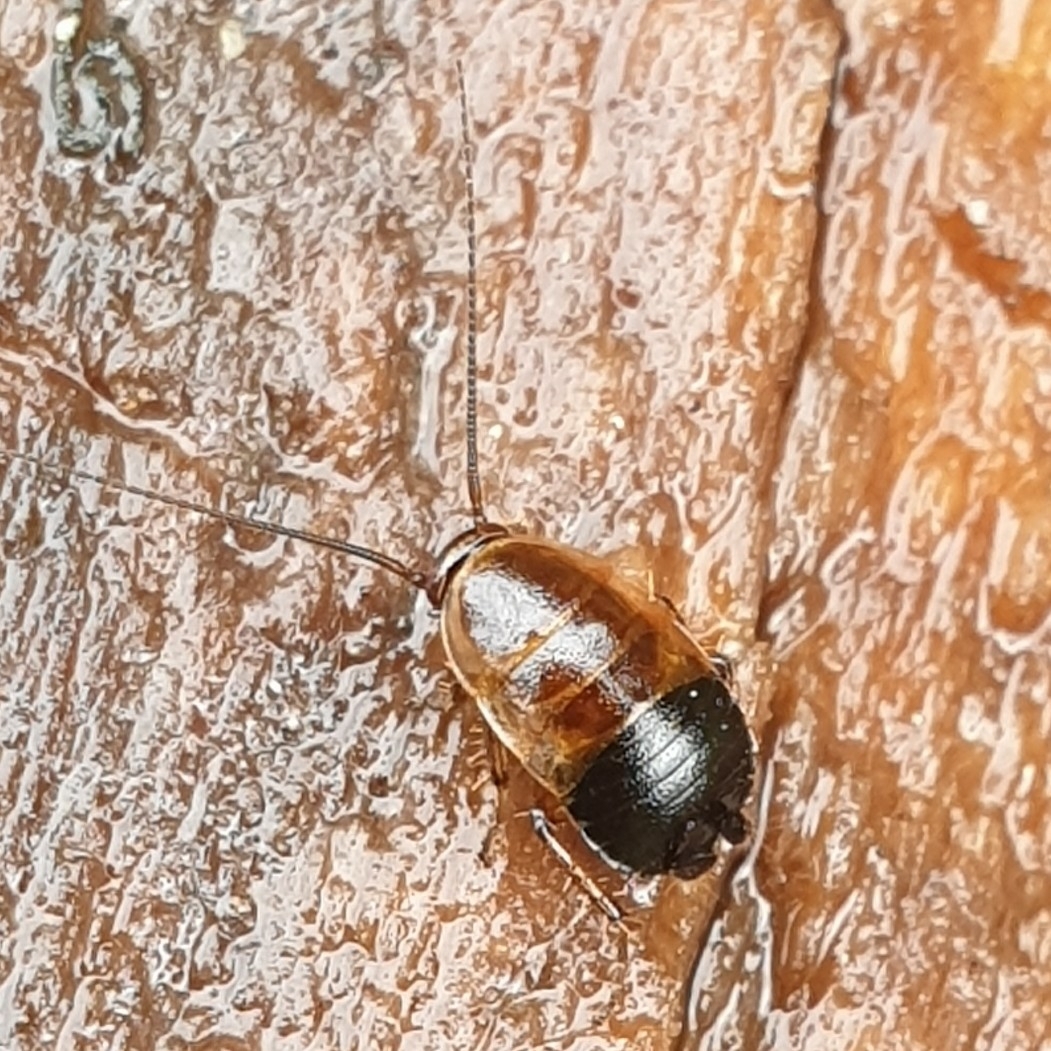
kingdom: Animalia
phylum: Arthropoda
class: Insecta
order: Blattodea
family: Ectobiidae
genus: Ectobius
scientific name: Ectobius sylvestris
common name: Forest cockroach
